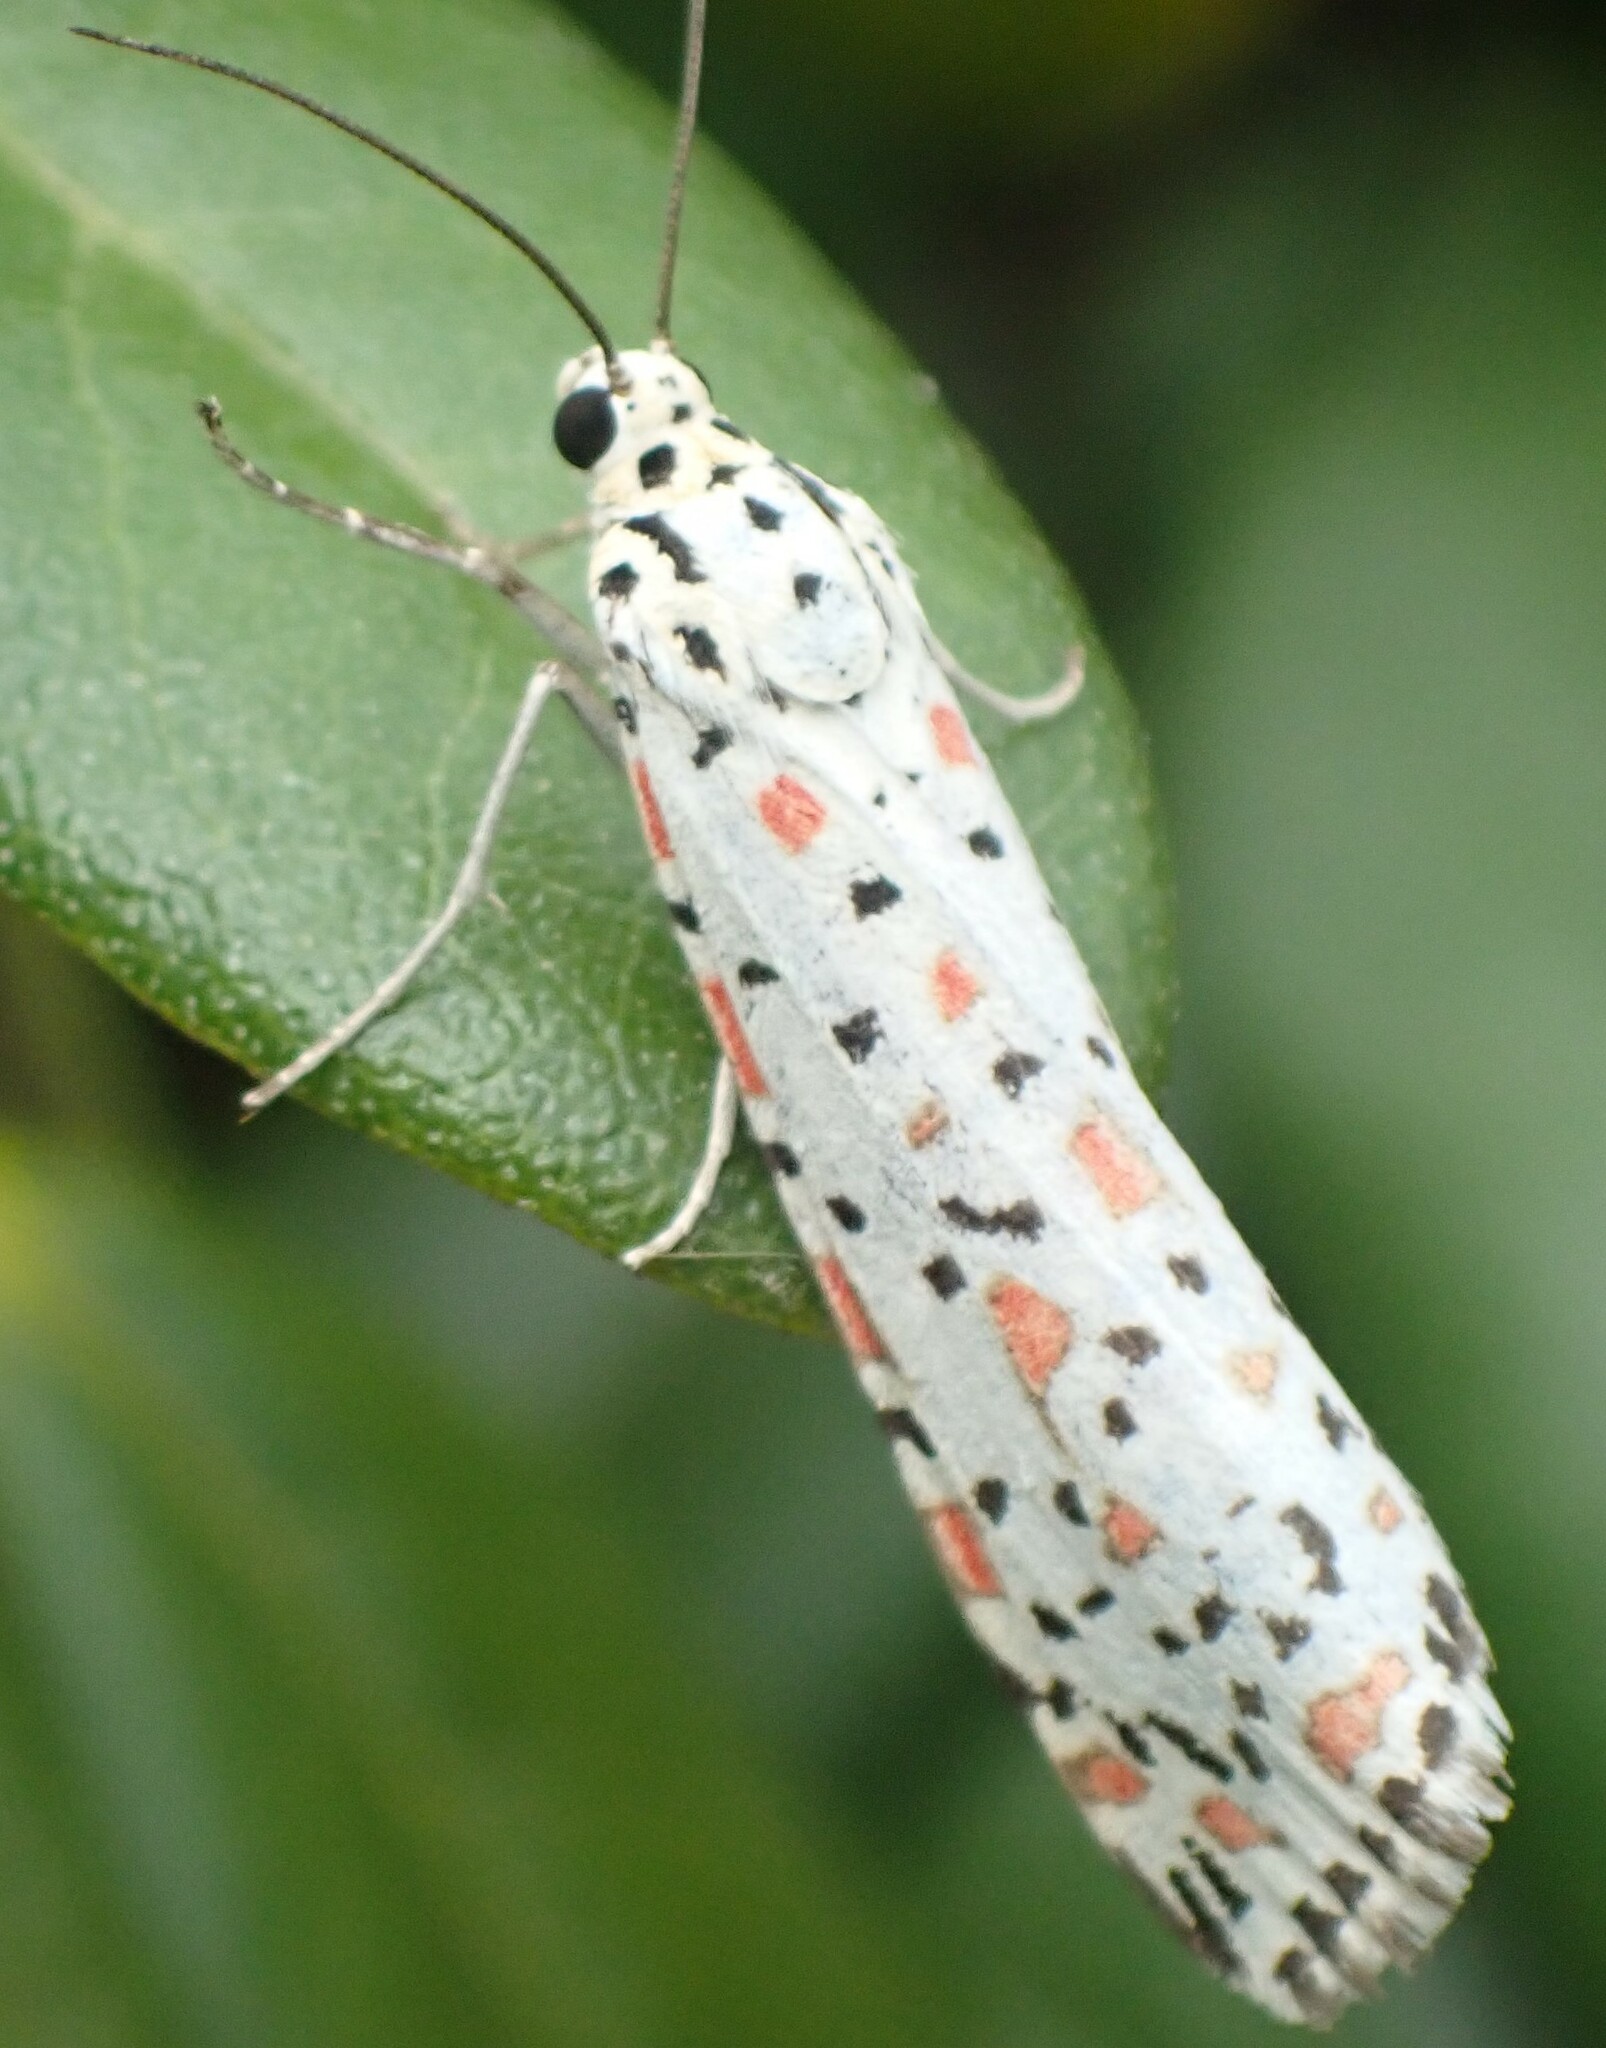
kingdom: Animalia
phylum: Arthropoda
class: Insecta
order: Lepidoptera
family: Erebidae
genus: Utetheisa
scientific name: Utetheisa pulchelloides
